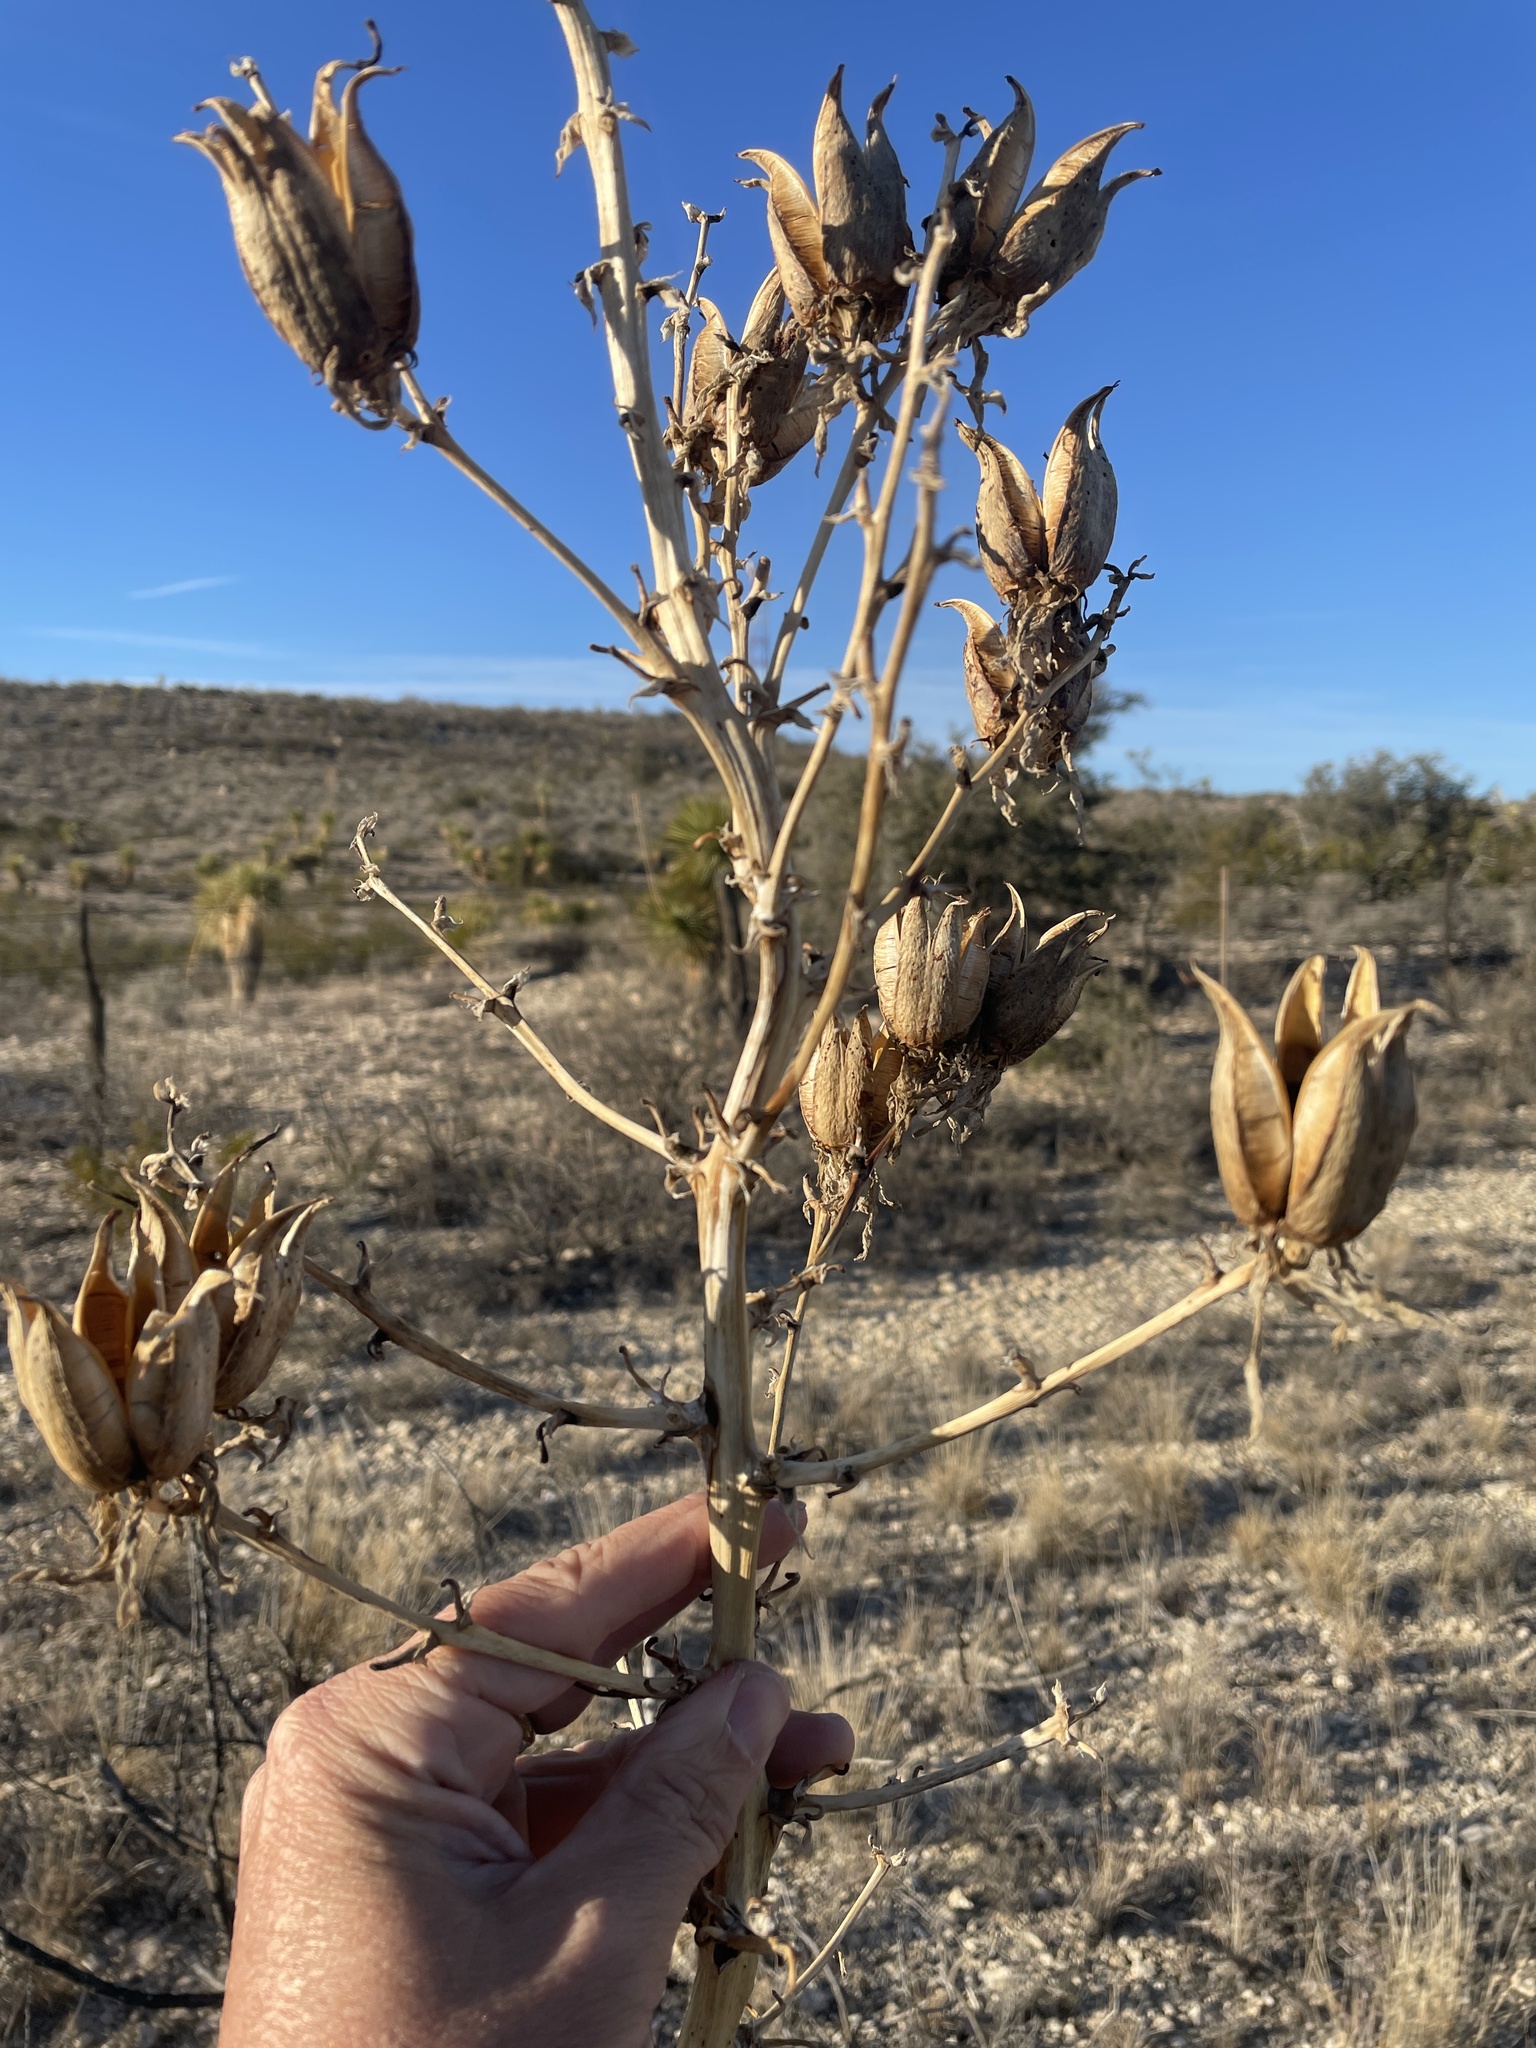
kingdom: Plantae
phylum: Tracheophyta
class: Liliopsida
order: Asparagales
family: Asparagaceae
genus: Yucca
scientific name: Yucca thompsoniana
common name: Trans-pecos yucca
